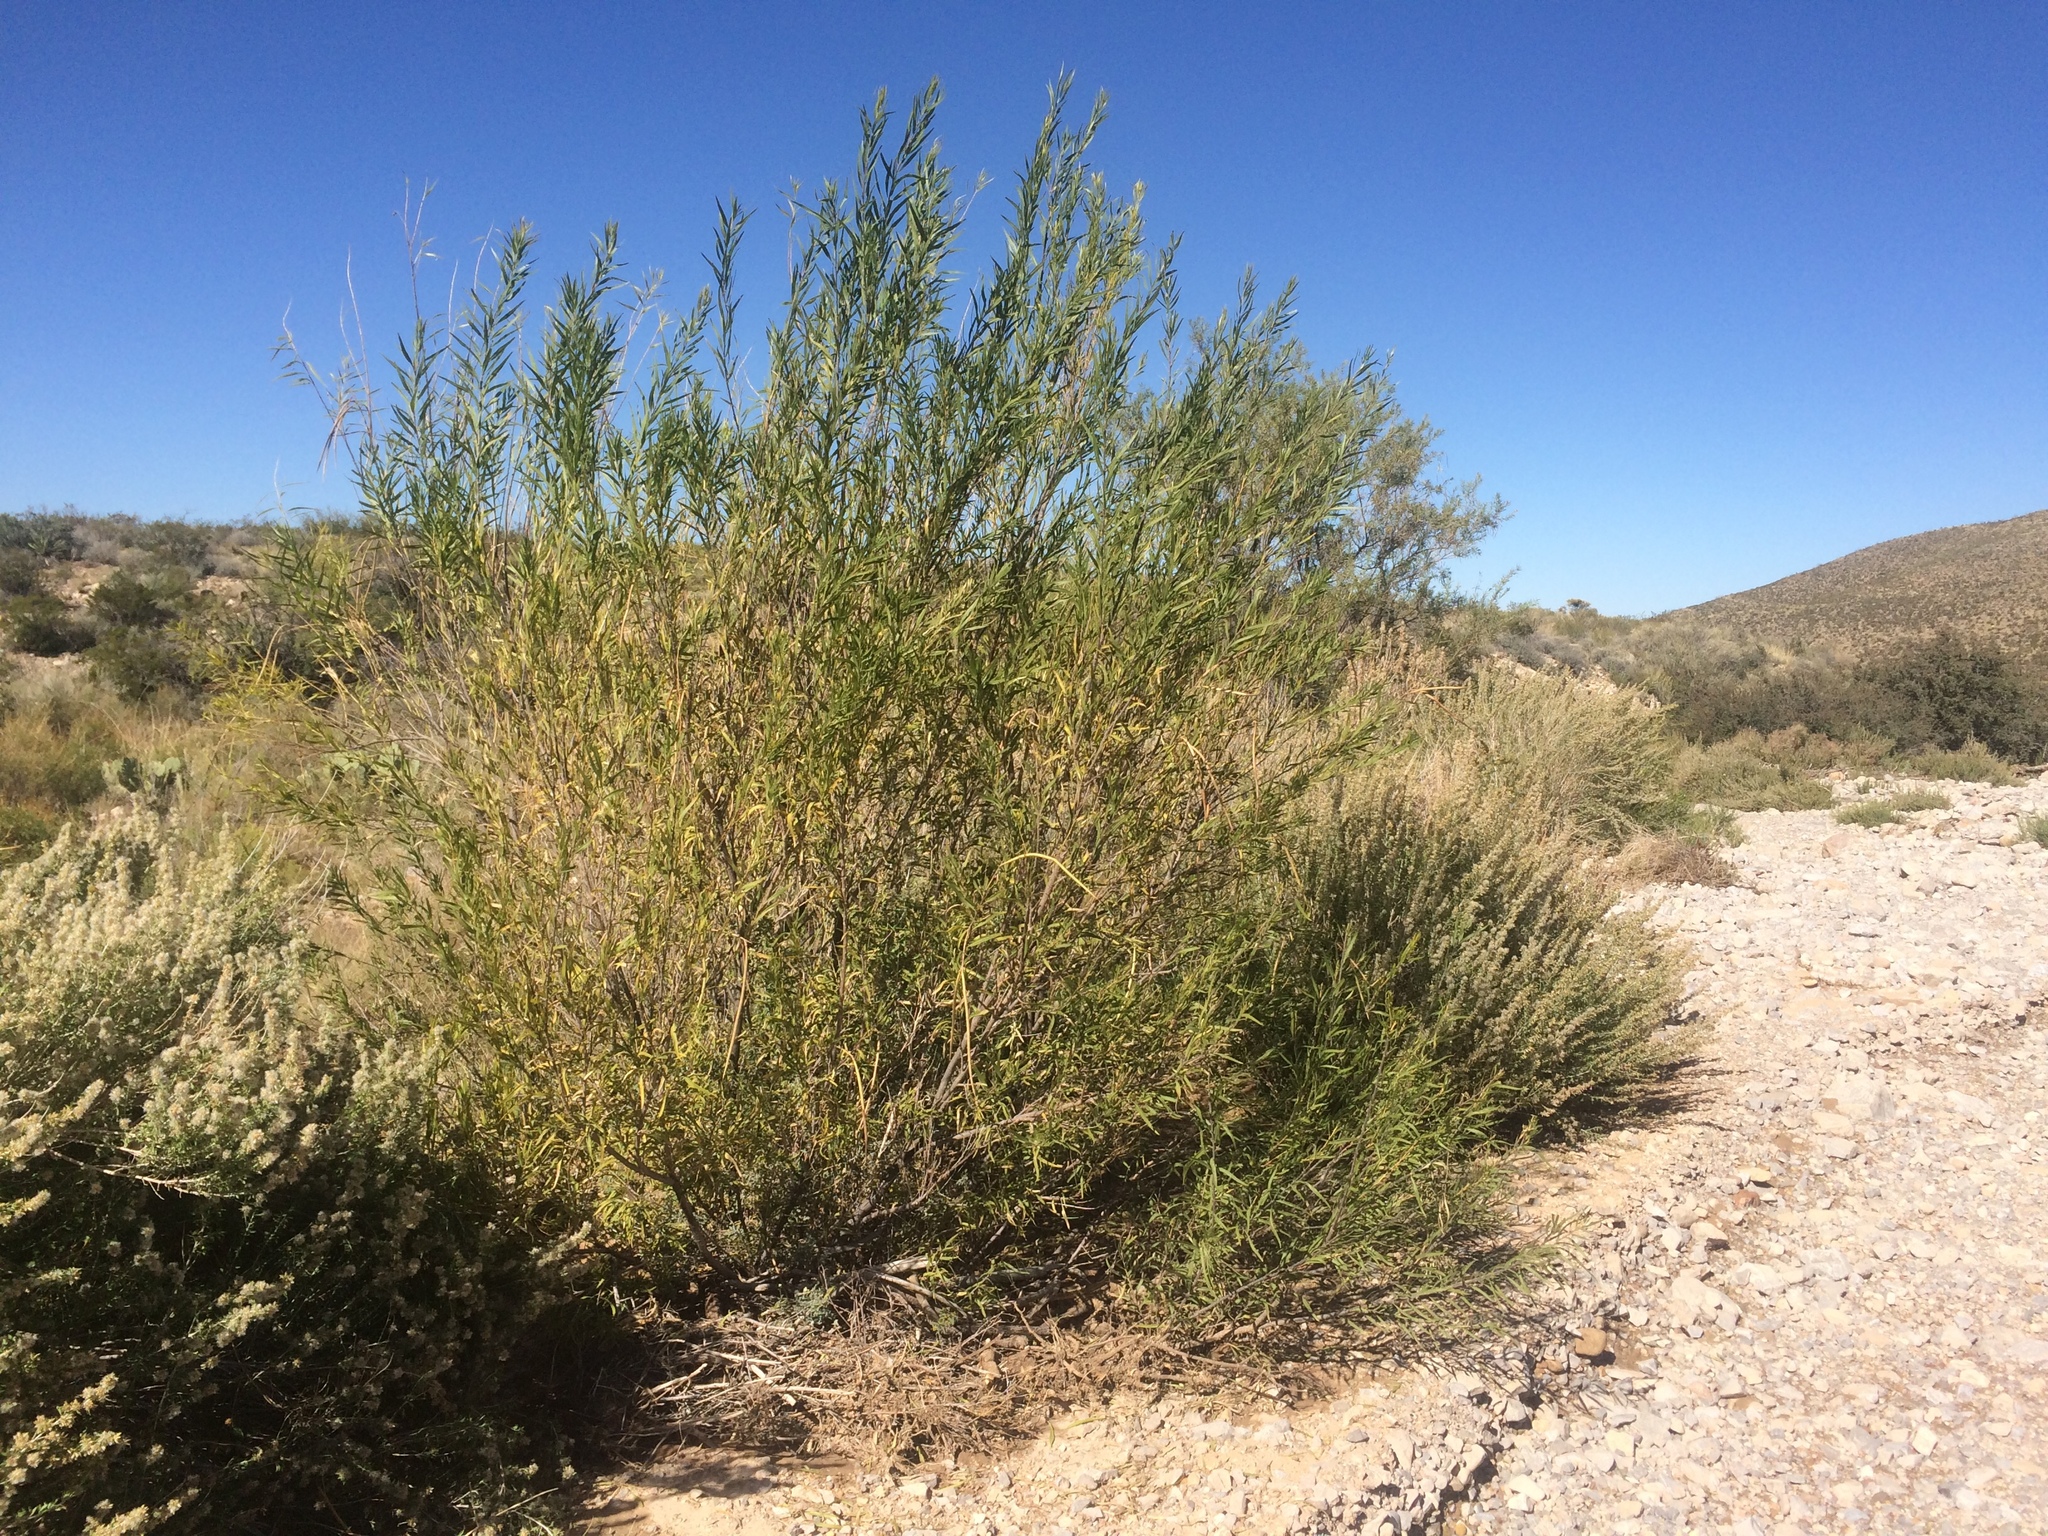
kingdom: Plantae
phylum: Tracheophyta
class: Magnoliopsida
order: Lamiales
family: Bignoniaceae
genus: Chilopsis
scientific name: Chilopsis linearis
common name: Desert-willow
